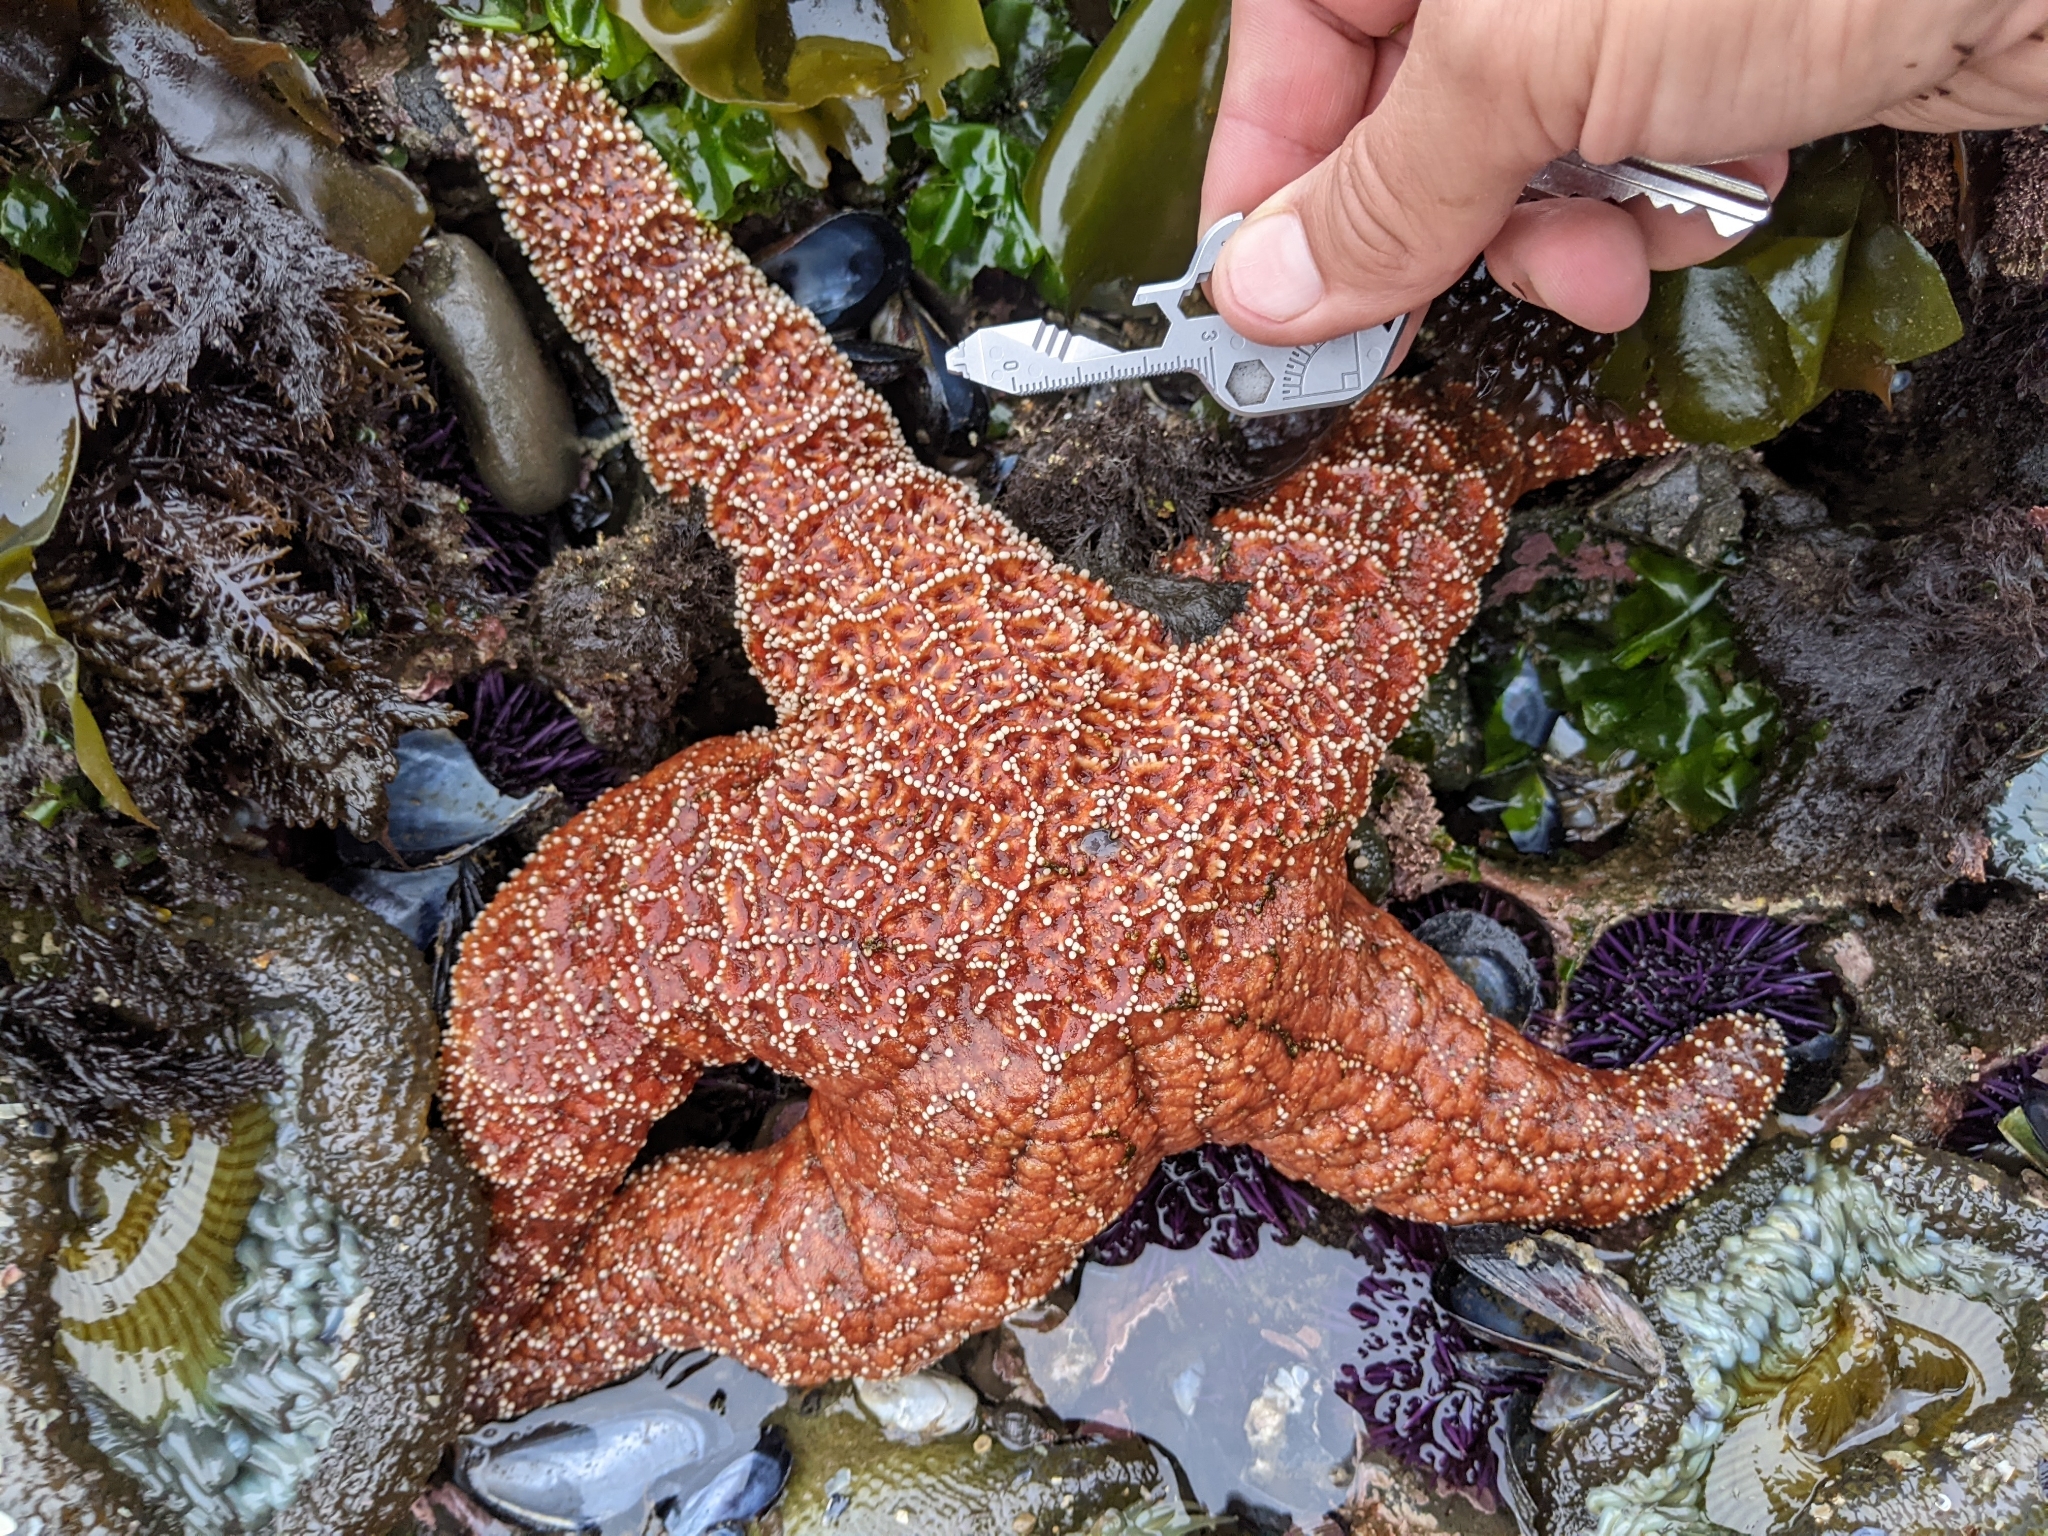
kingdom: Animalia
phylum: Echinodermata
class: Asteroidea
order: Forcipulatida
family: Asteriidae
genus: Pisaster
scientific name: Pisaster ochraceus
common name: Ochre stars
